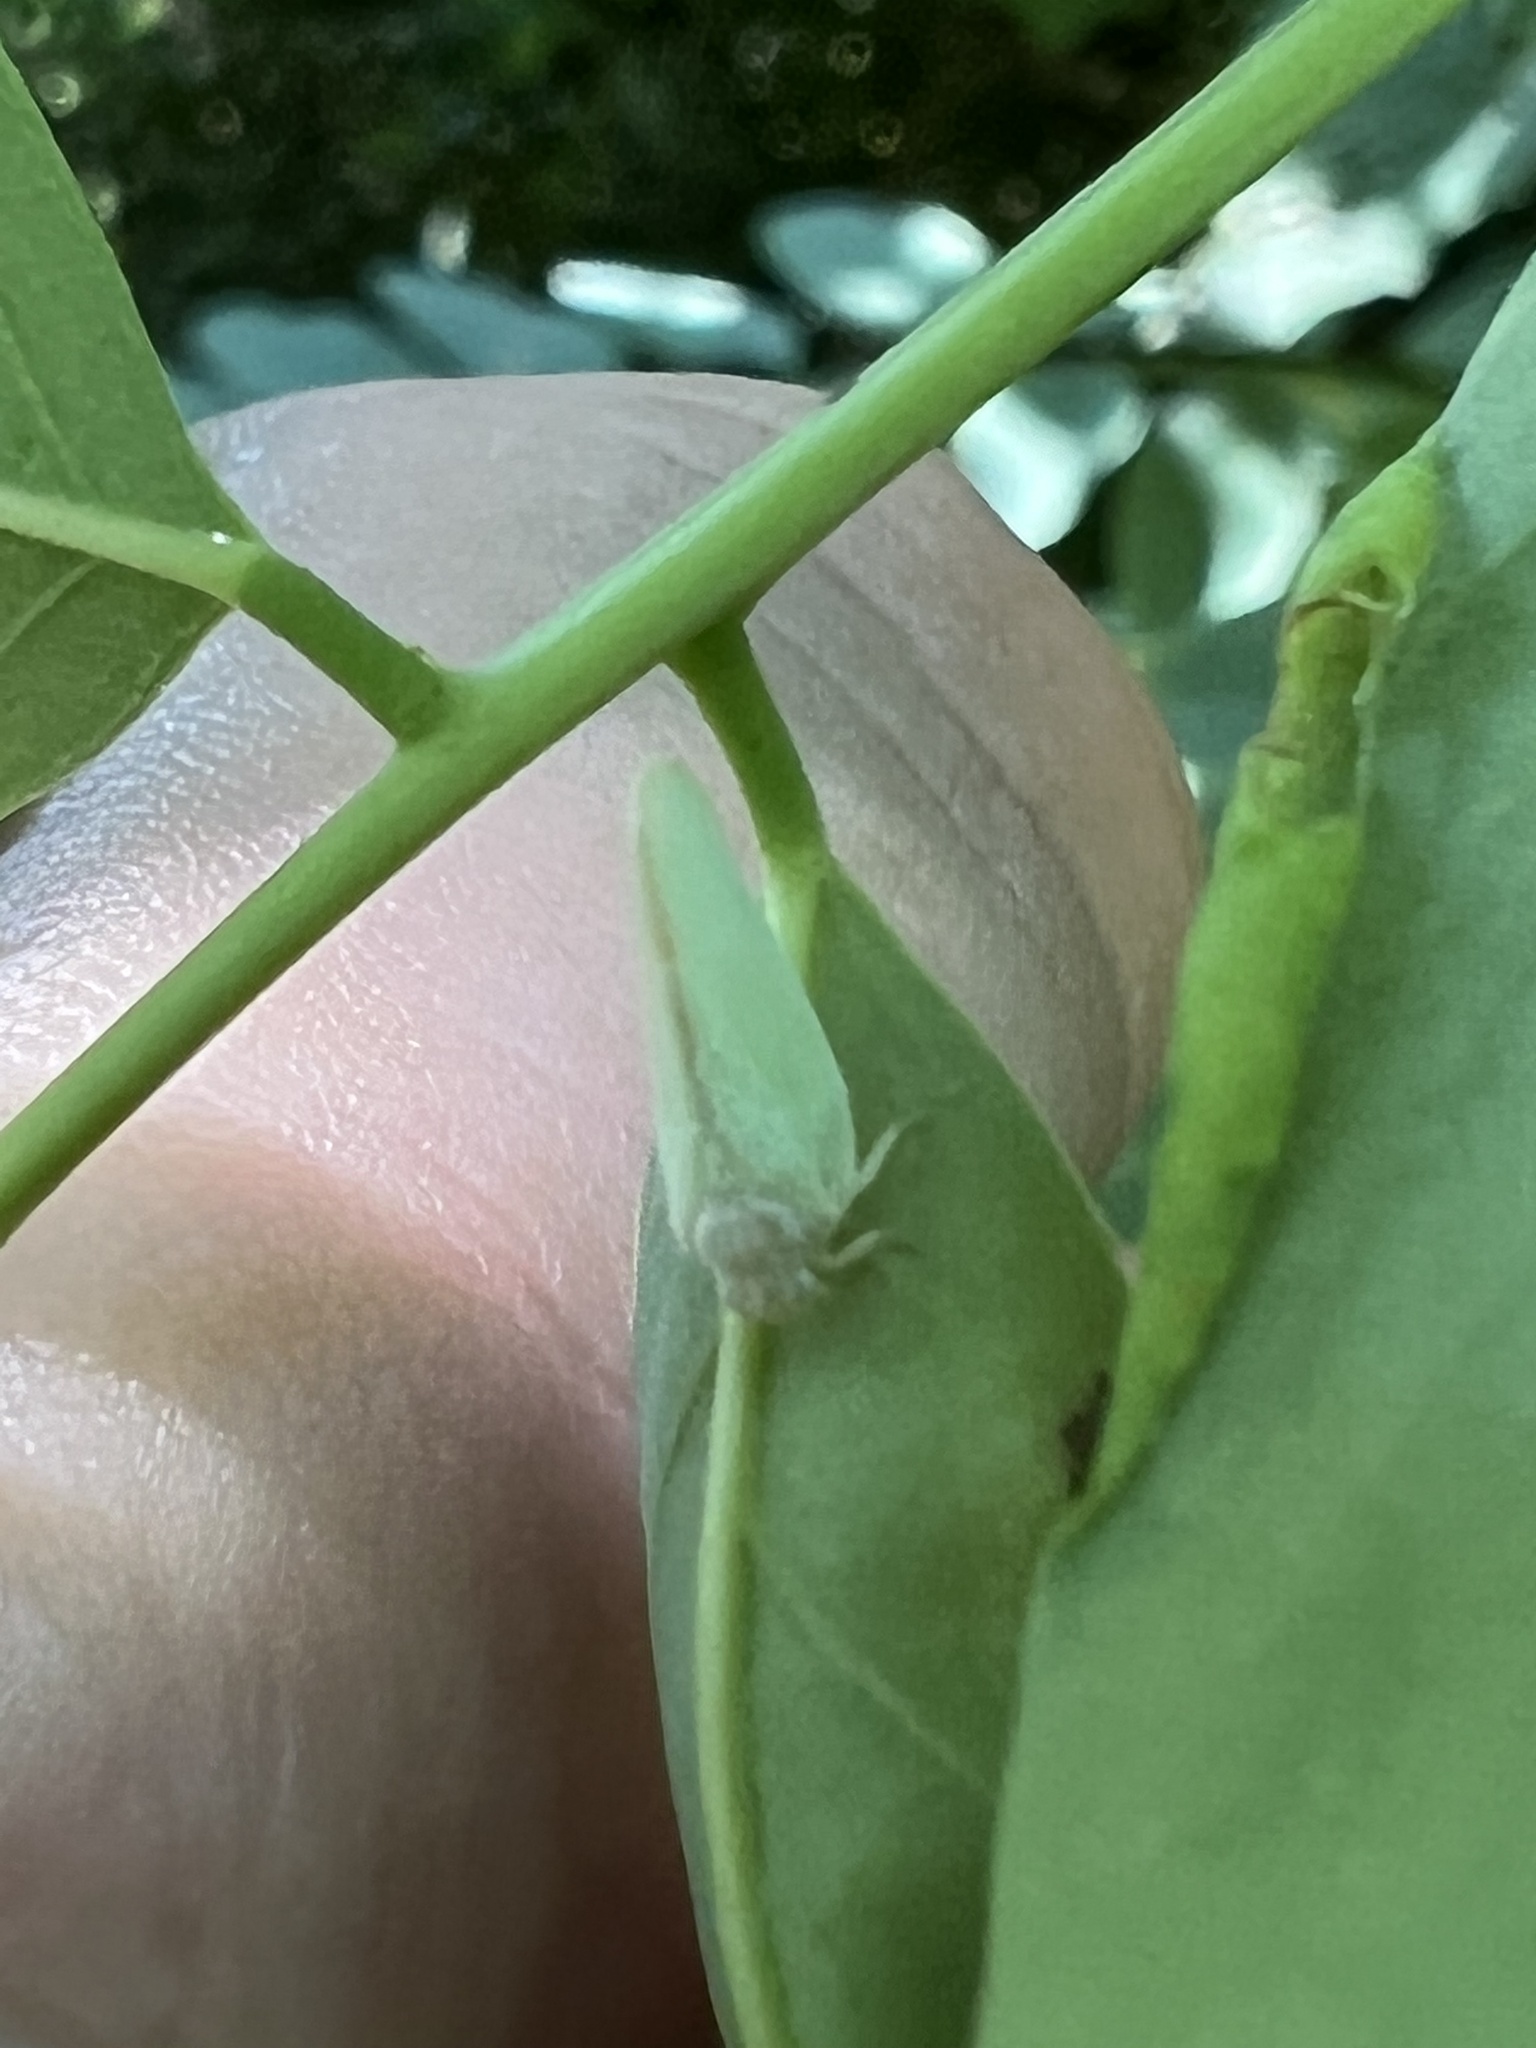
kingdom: Animalia
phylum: Arthropoda
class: Insecta
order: Hemiptera
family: Flatidae
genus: Ormenoides
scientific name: Ormenoides venusta
